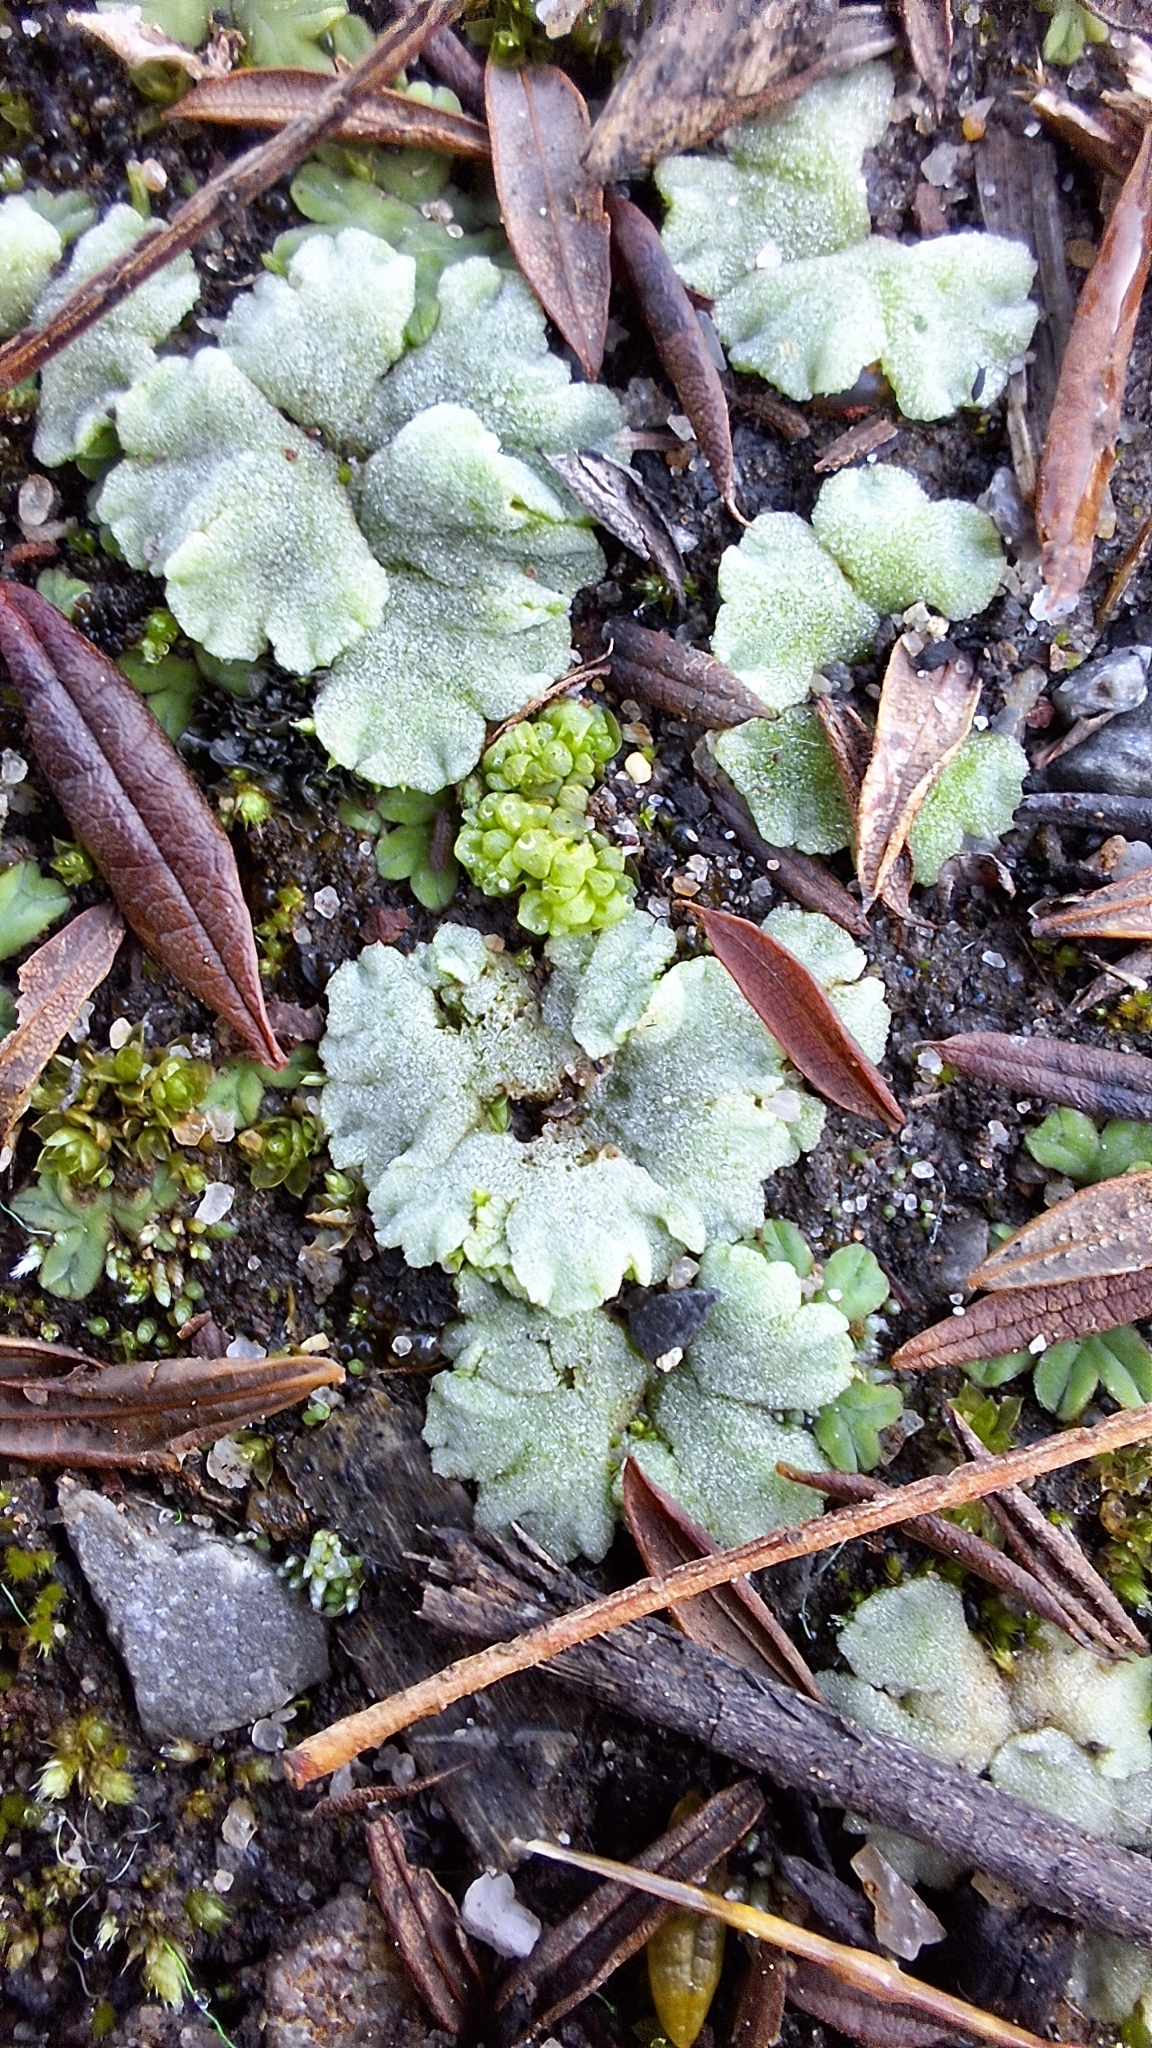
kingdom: Plantae
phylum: Marchantiophyta
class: Marchantiopsida
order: Marchantiales
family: Ricciaceae
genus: Riccia
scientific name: Riccia crystallina
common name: Blue crystalwort
